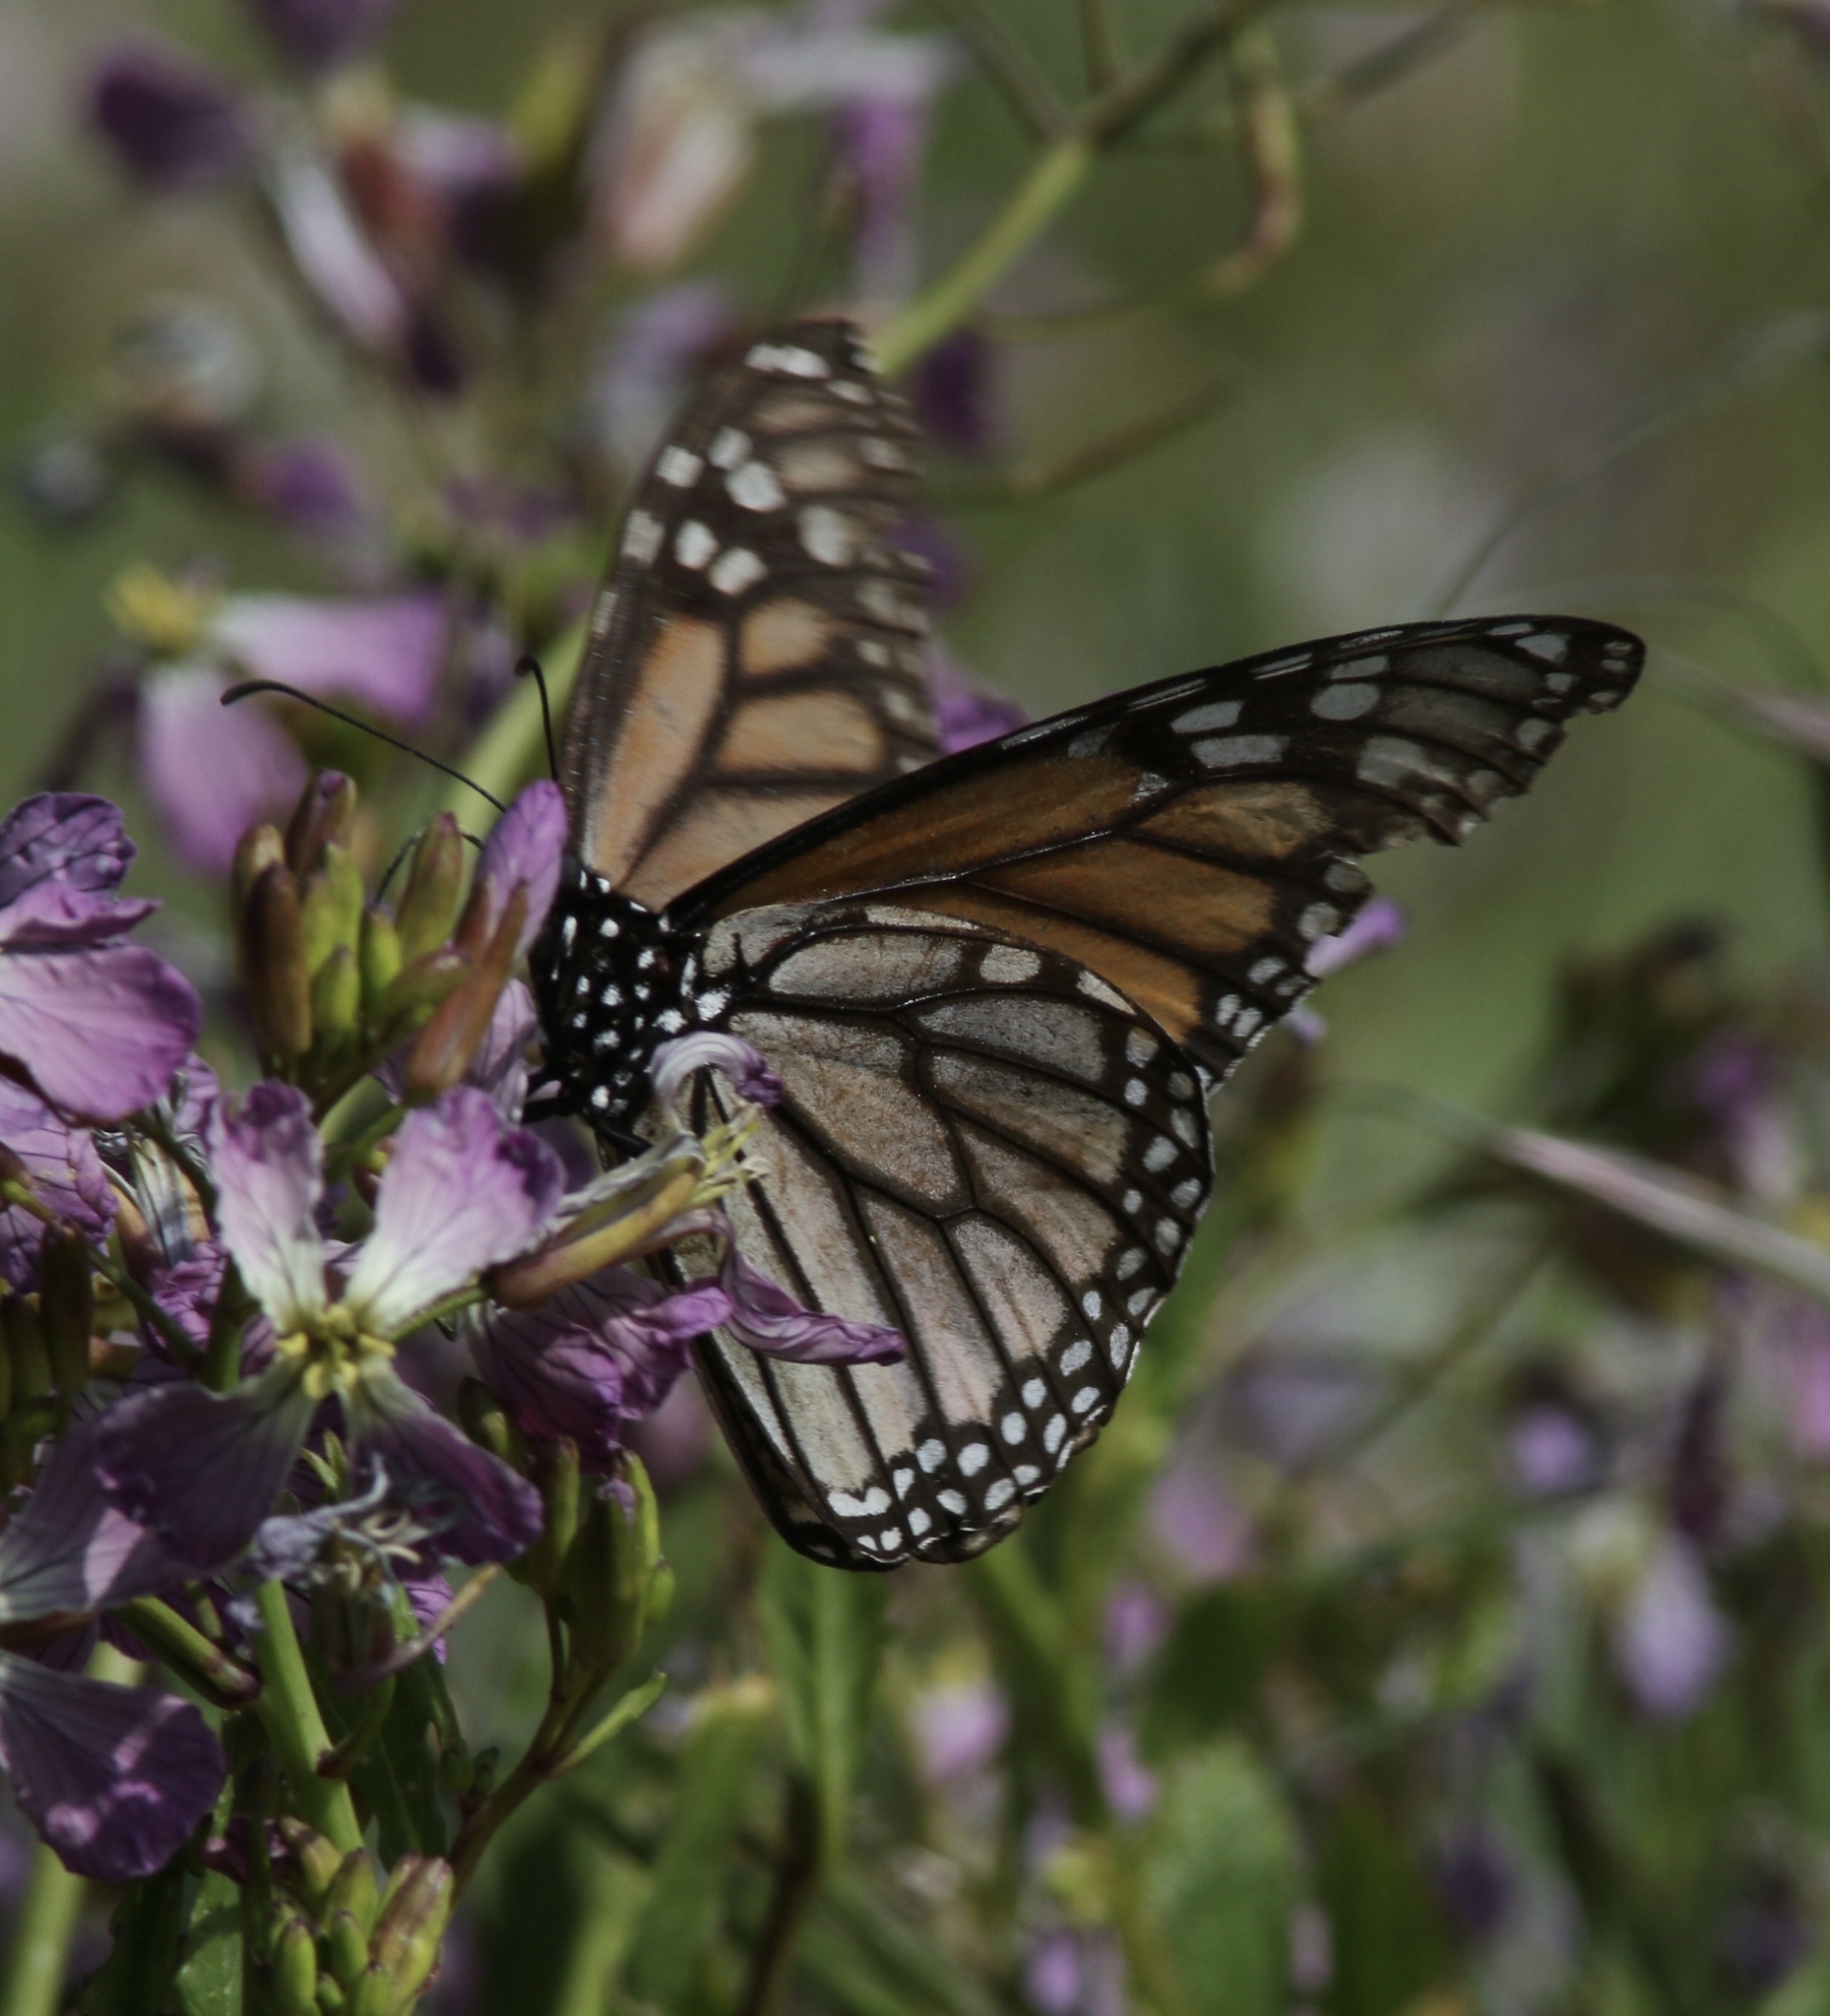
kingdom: Animalia
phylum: Arthropoda
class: Insecta
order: Lepidoptera
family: Nymphalidae
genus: Danaus
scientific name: Danaus plexippus
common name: Monarch
